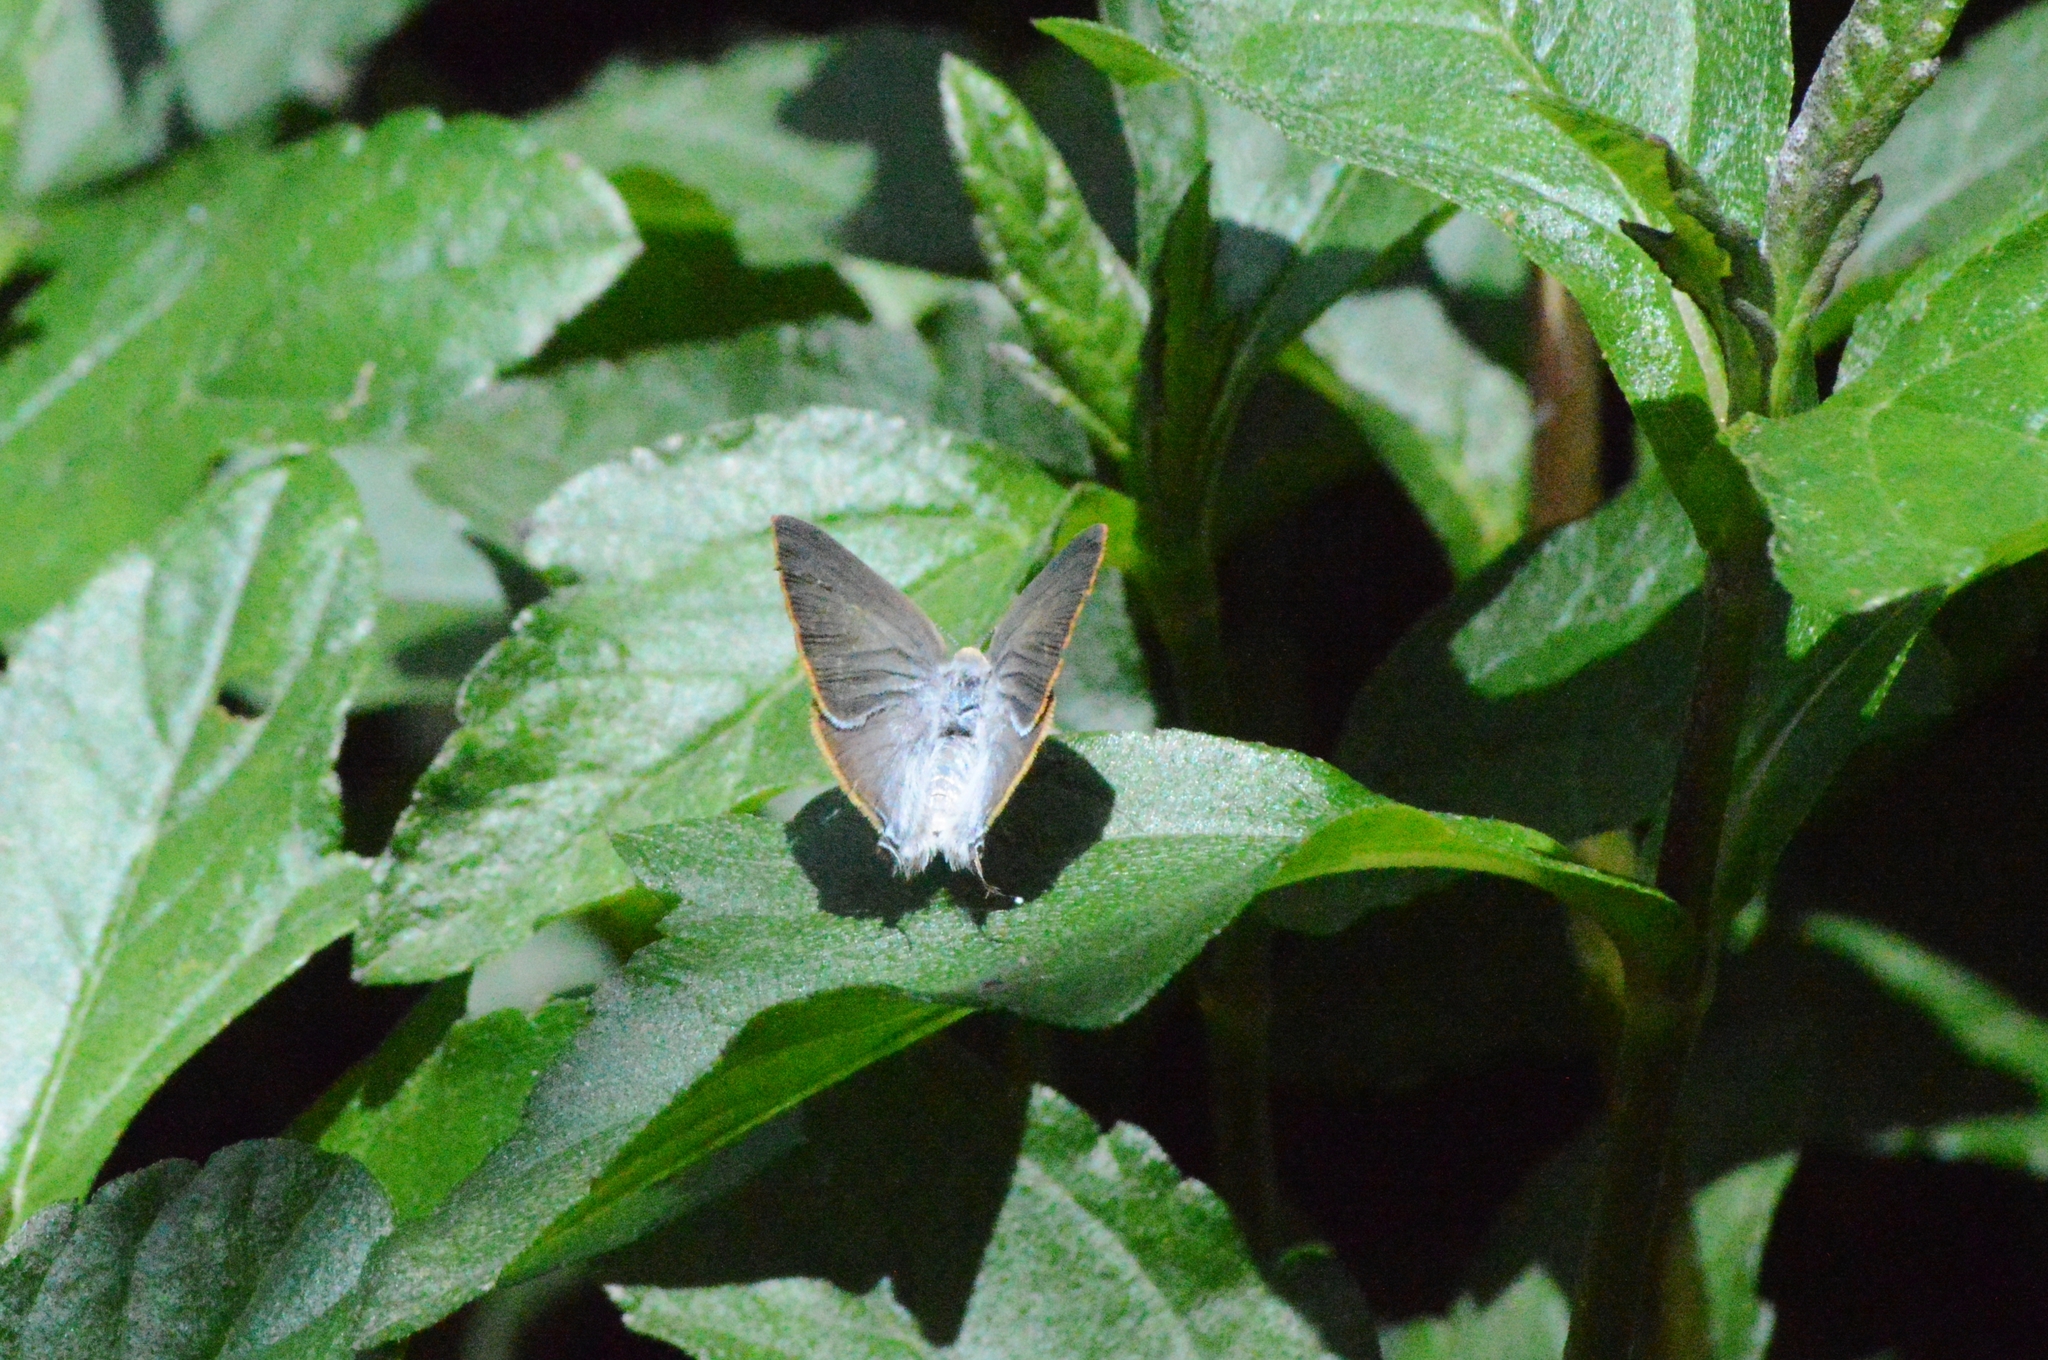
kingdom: Animalia
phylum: Arthropoda
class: Insecta
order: Lepidoptera
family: Lycaenidae
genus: Rekoa
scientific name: Rekoa palegon
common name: Gold-bordered hairstreak
